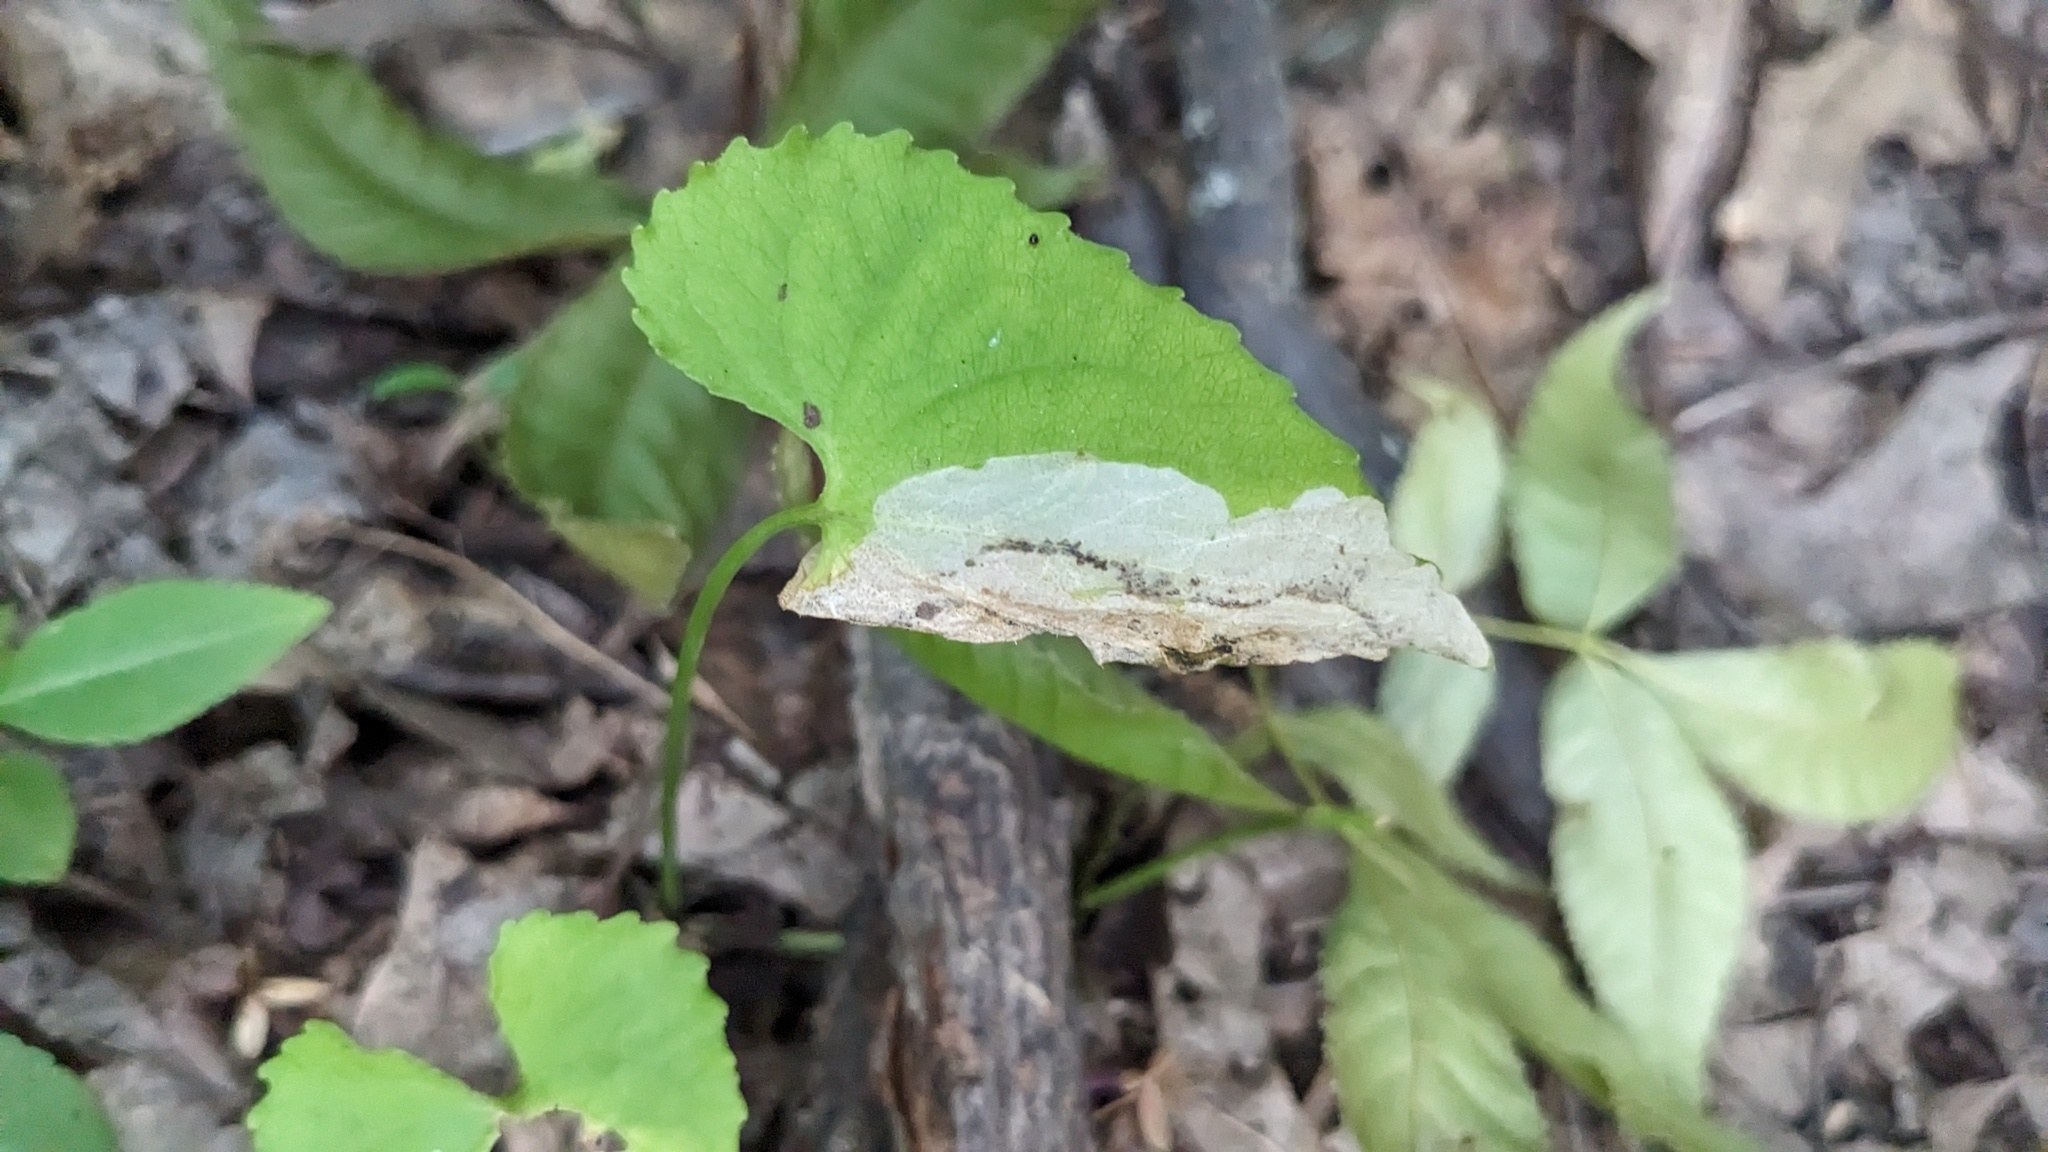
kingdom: Animalia
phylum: Arthropoda
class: Insecta
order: Hymenoptera
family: Tenthredinidae
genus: Nefusa
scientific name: Nefusa ambigua
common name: Violet leafmining sawfly
